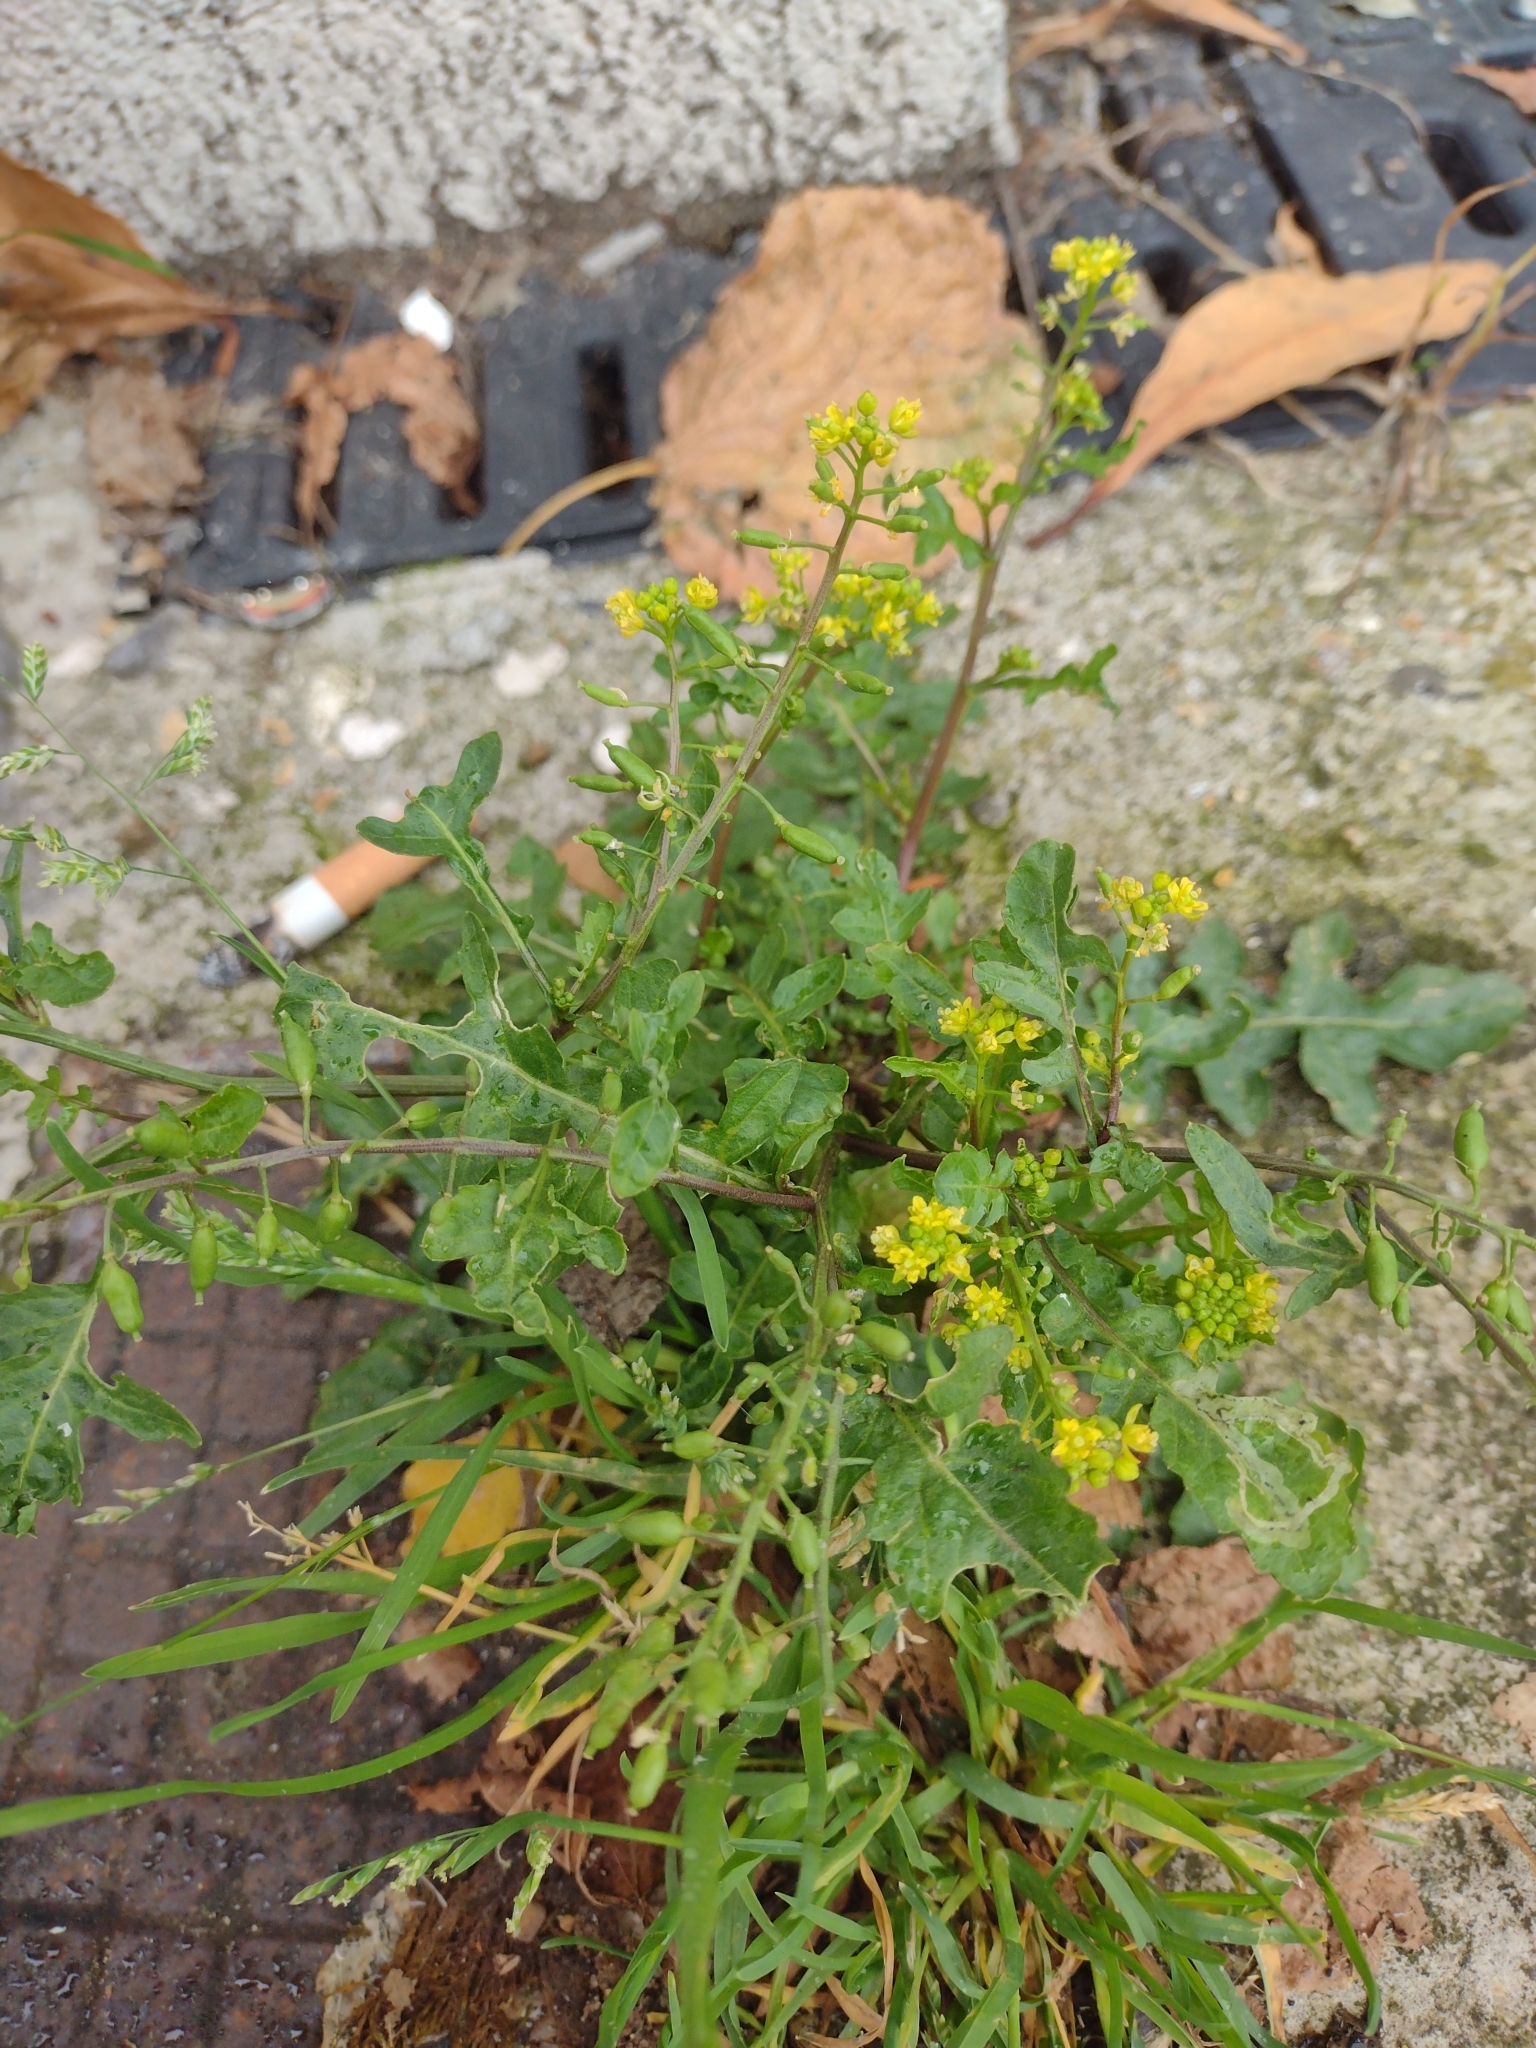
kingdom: Plantae
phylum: Tracheophyta
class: Magnoliopsida
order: Brassicales
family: Brassicaceae
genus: Rorippa
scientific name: Rorippa palustris
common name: Marsh yellow-cress
